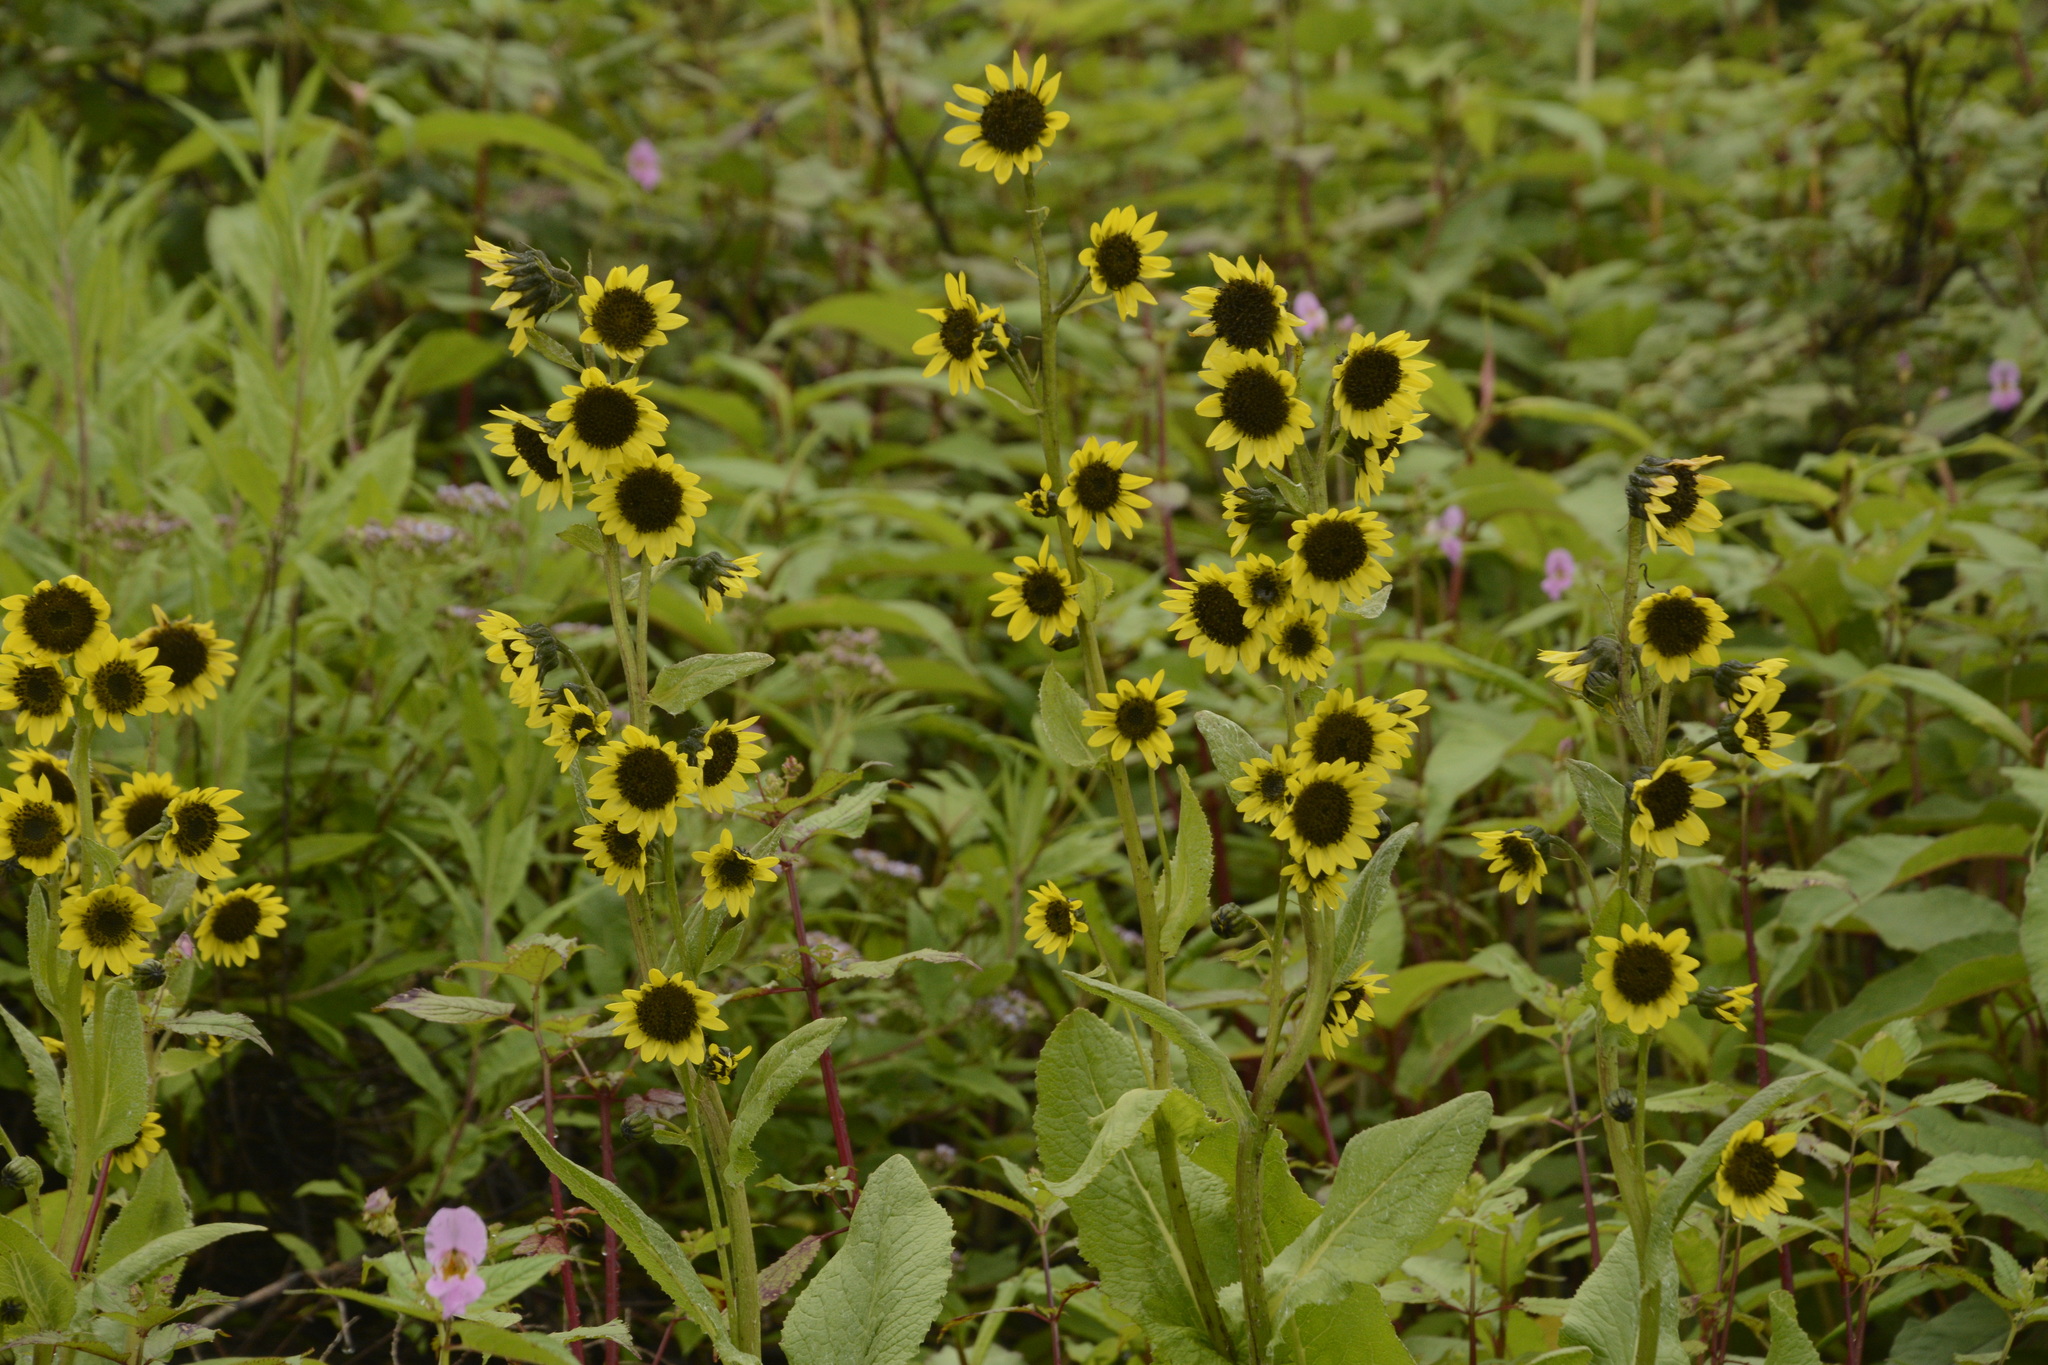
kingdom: Plantae
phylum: Tracheophyta
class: Magnoliopsida
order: Asterales
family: Asteraceae
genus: Cremanthodium
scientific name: Cremanthodium arnicoides
